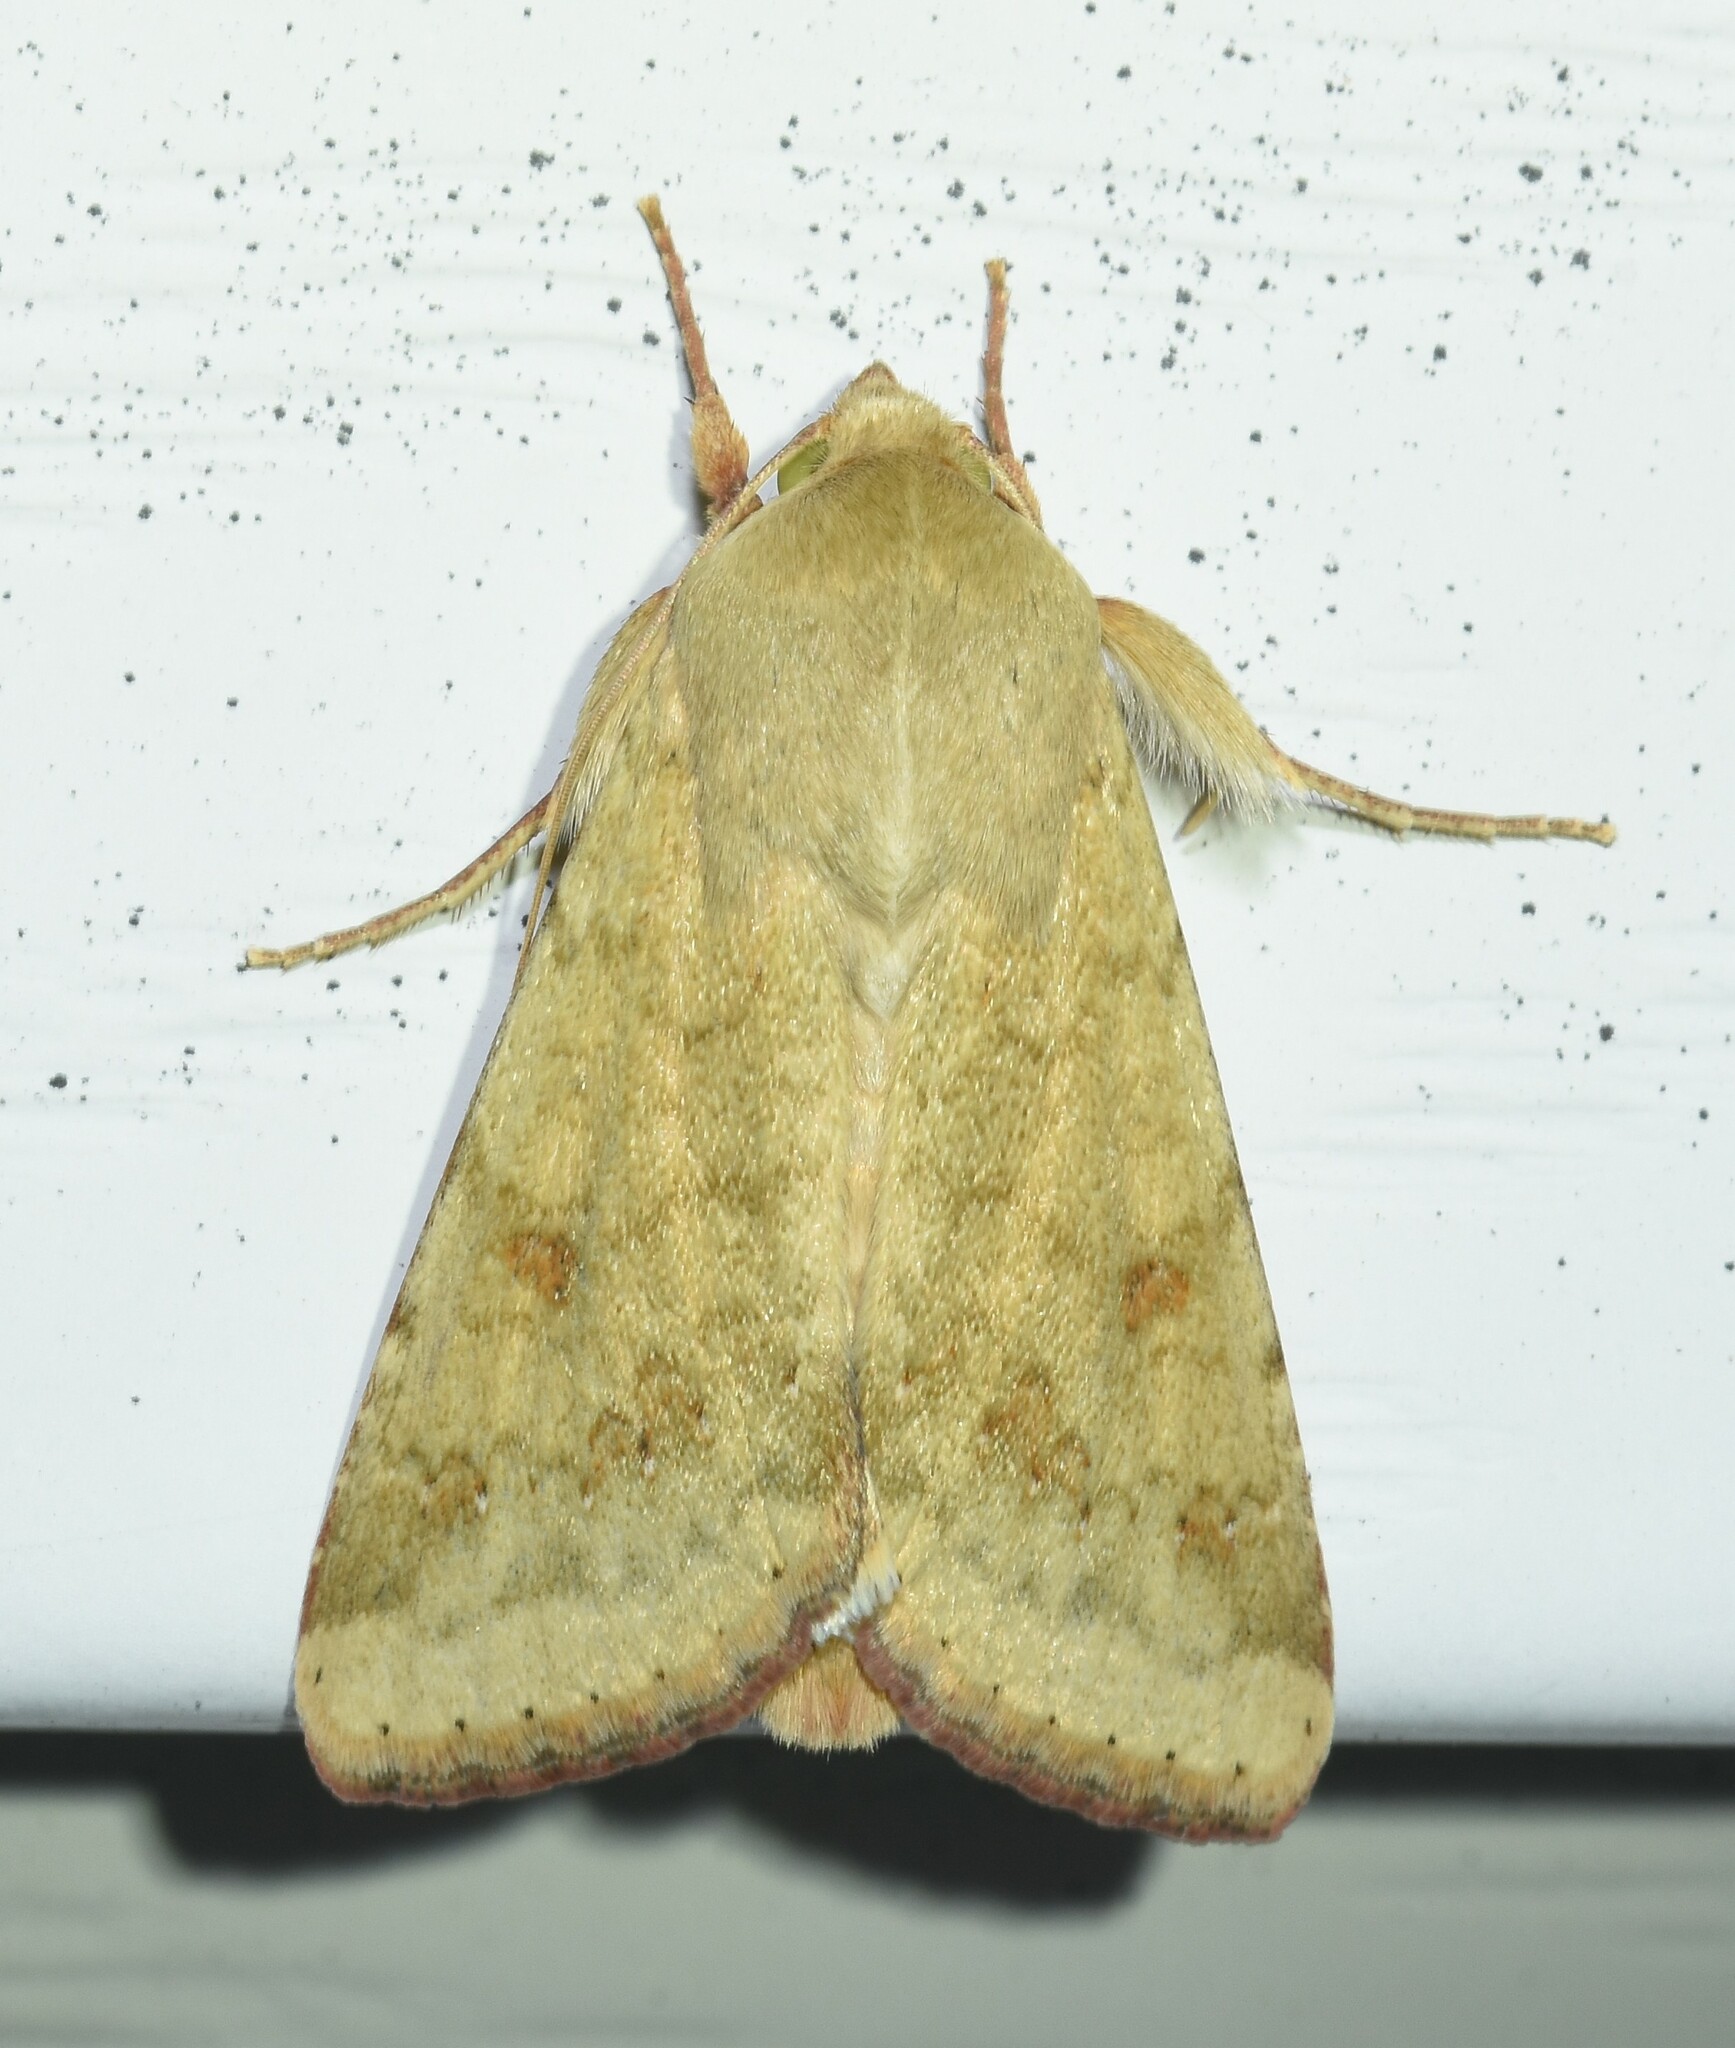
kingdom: Animalia
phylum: Arthropoda
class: Insecta
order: Lepidoptera
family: Noctuidae
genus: Helicoverpa
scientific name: Helicoverpa zea
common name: Bollworm
